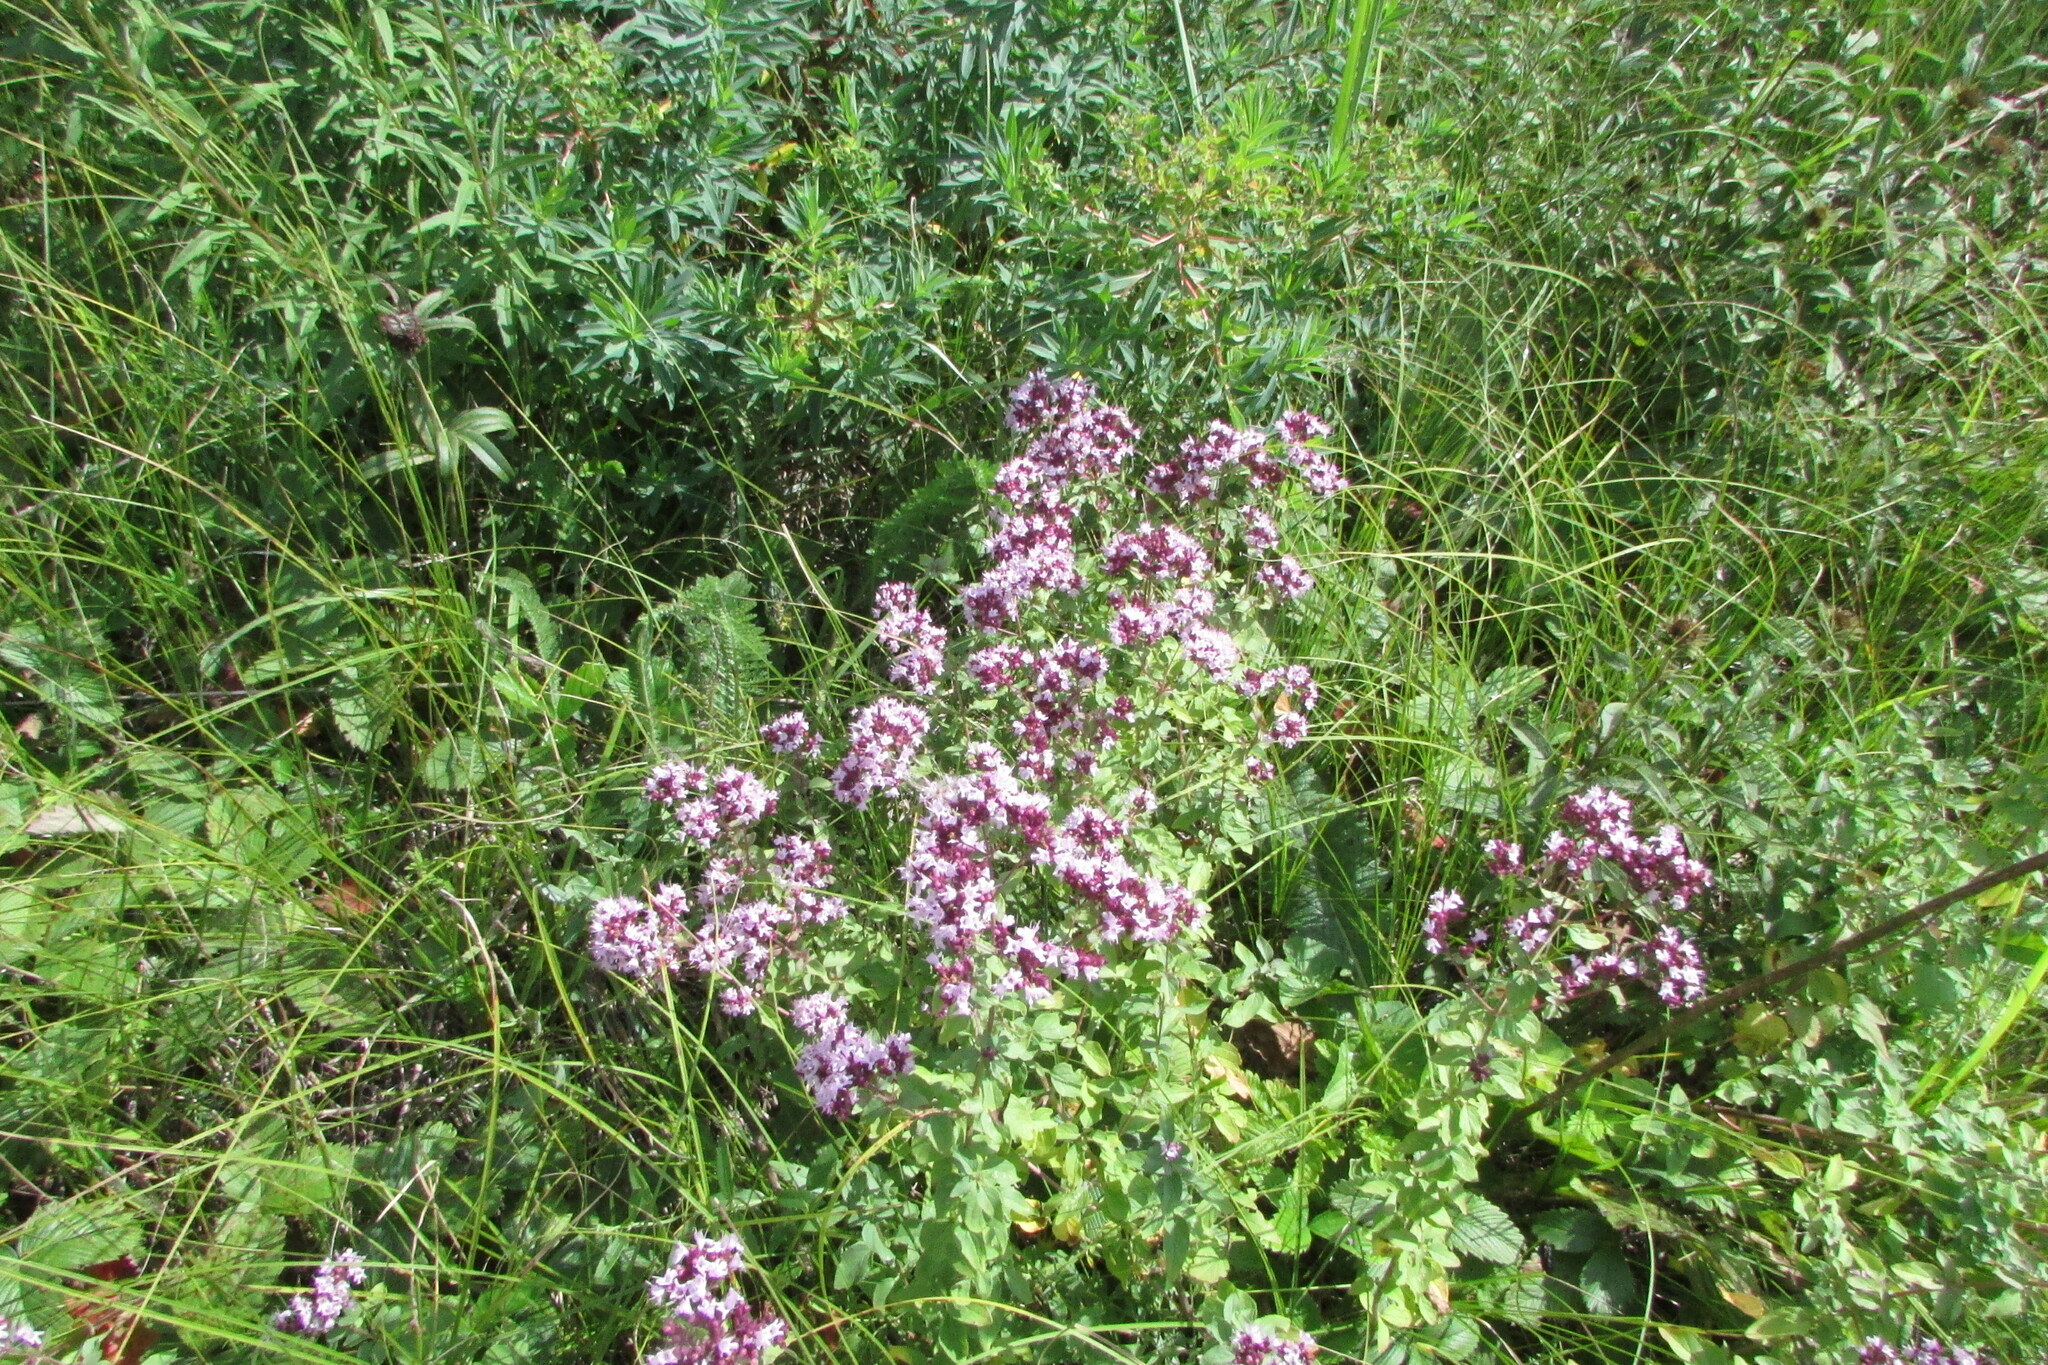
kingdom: Plantae
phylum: Tracheophyta
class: Magnoliopsida
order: Lamiales
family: Lamiaceae
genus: Origanum
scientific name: Origanum vulgare
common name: Wild marjoram
